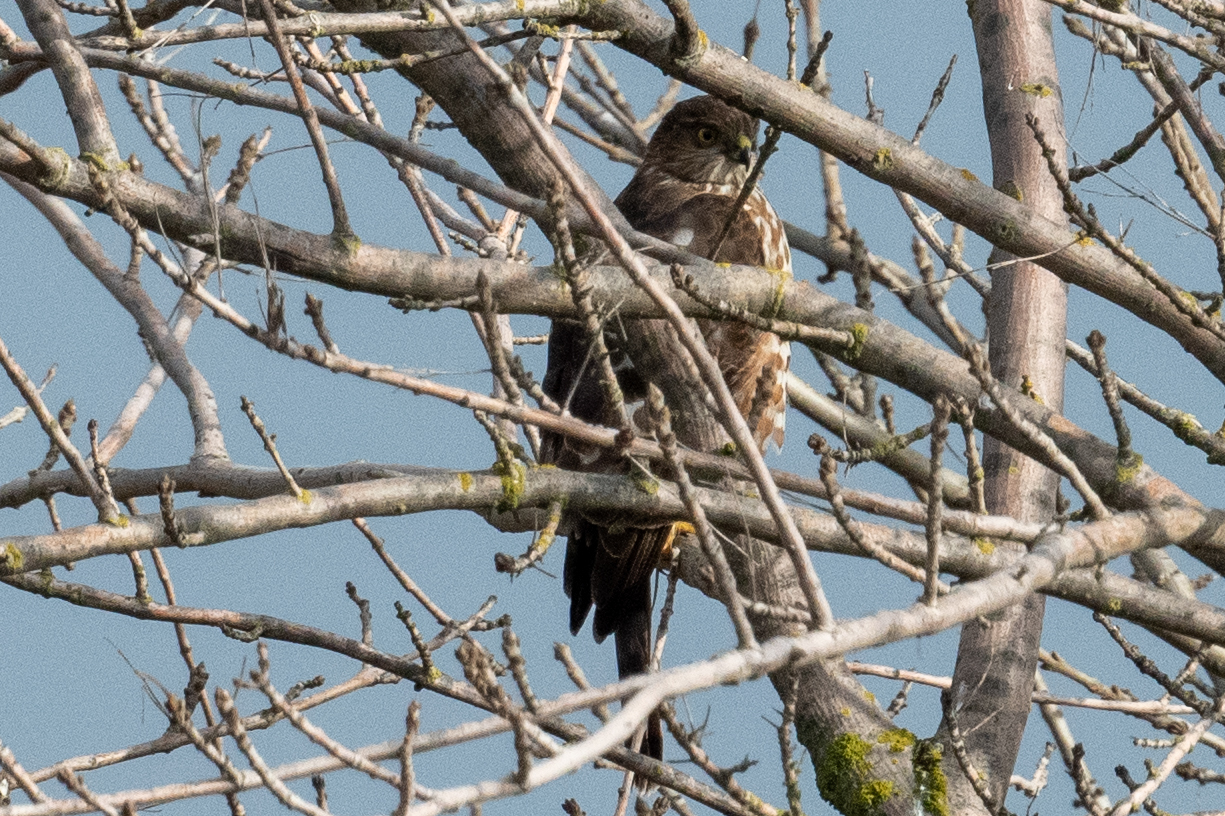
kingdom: Animalia
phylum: Chordata
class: Aves
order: Accipitriformes
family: Accipitridae
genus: Accipiter
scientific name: Accipiter striatus
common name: Sharp-shinned hawk
